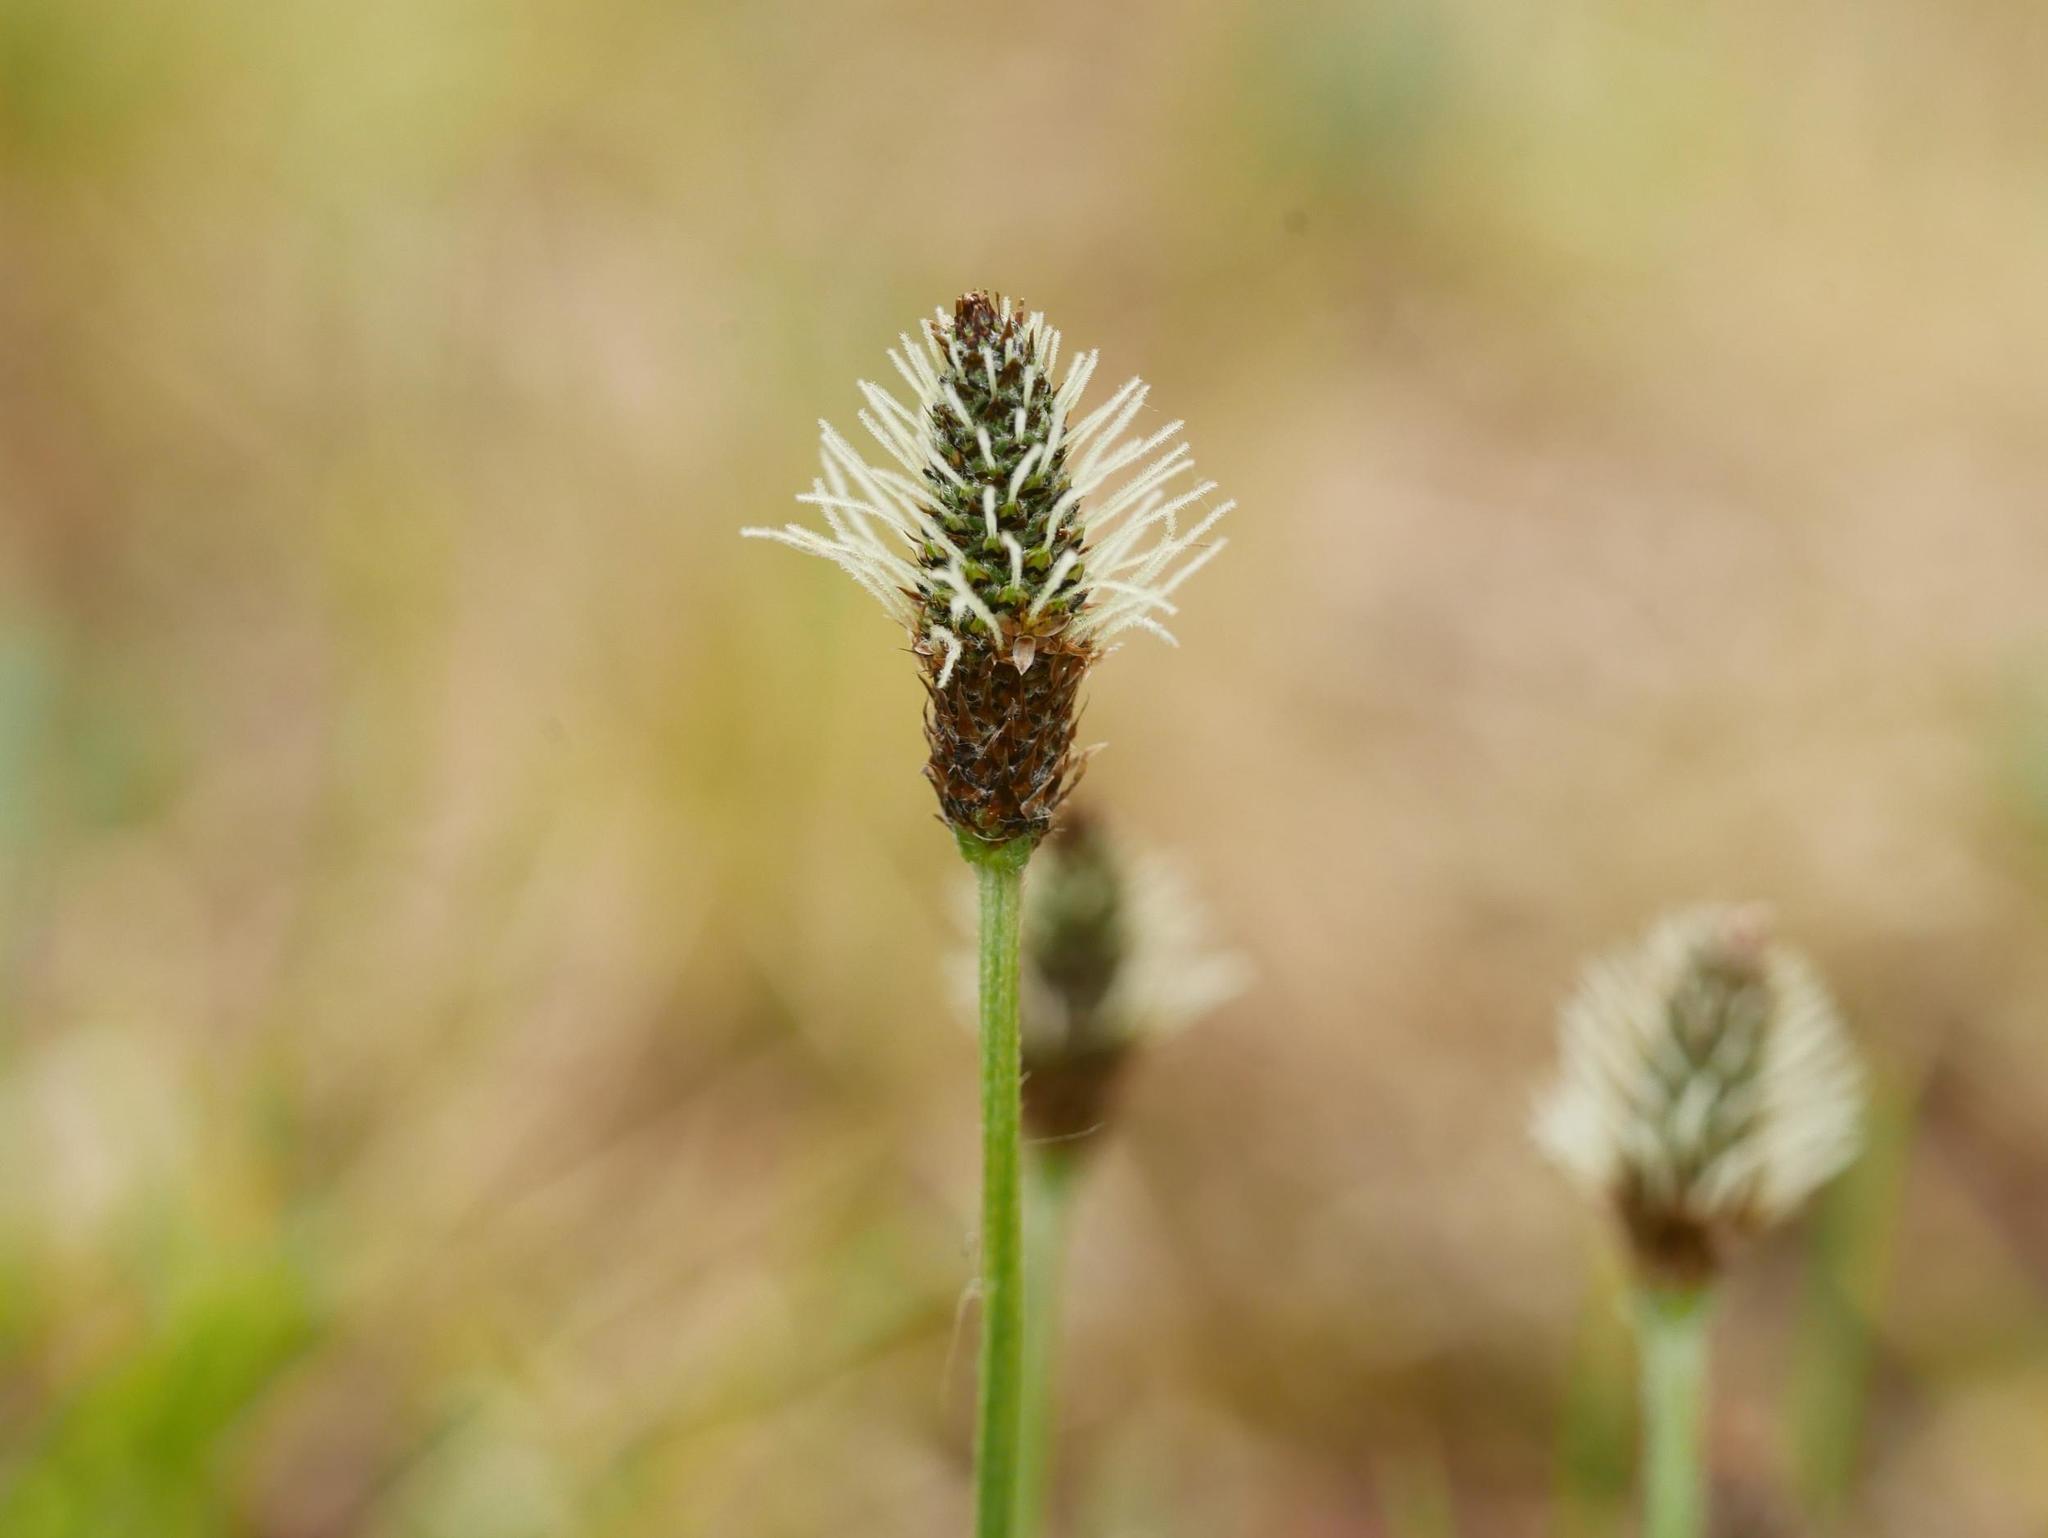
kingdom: Plantae
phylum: Tracheophyta
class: Magnoliopsida
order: Lamiales
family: Plantaginaceae
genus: Plantago
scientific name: Plantago lanceolata
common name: Ribwort plantain
